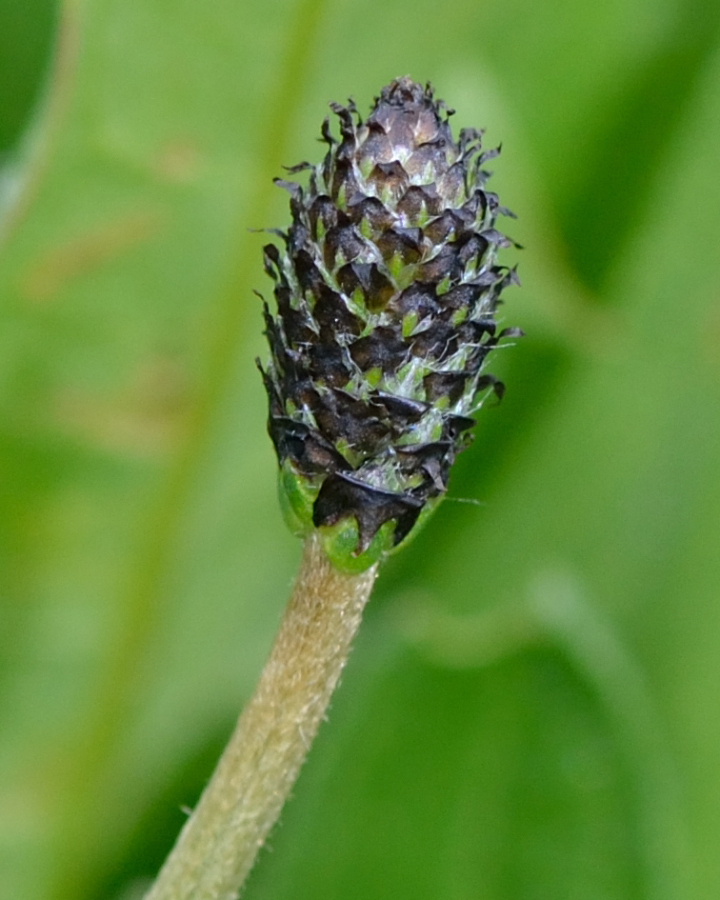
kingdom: Plantae
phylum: Tracheophyta
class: Magnoliopsida
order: Lamiales
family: Plantaginaceae
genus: Plantago
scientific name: Plantago lanceolata
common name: Ribwort plantain
